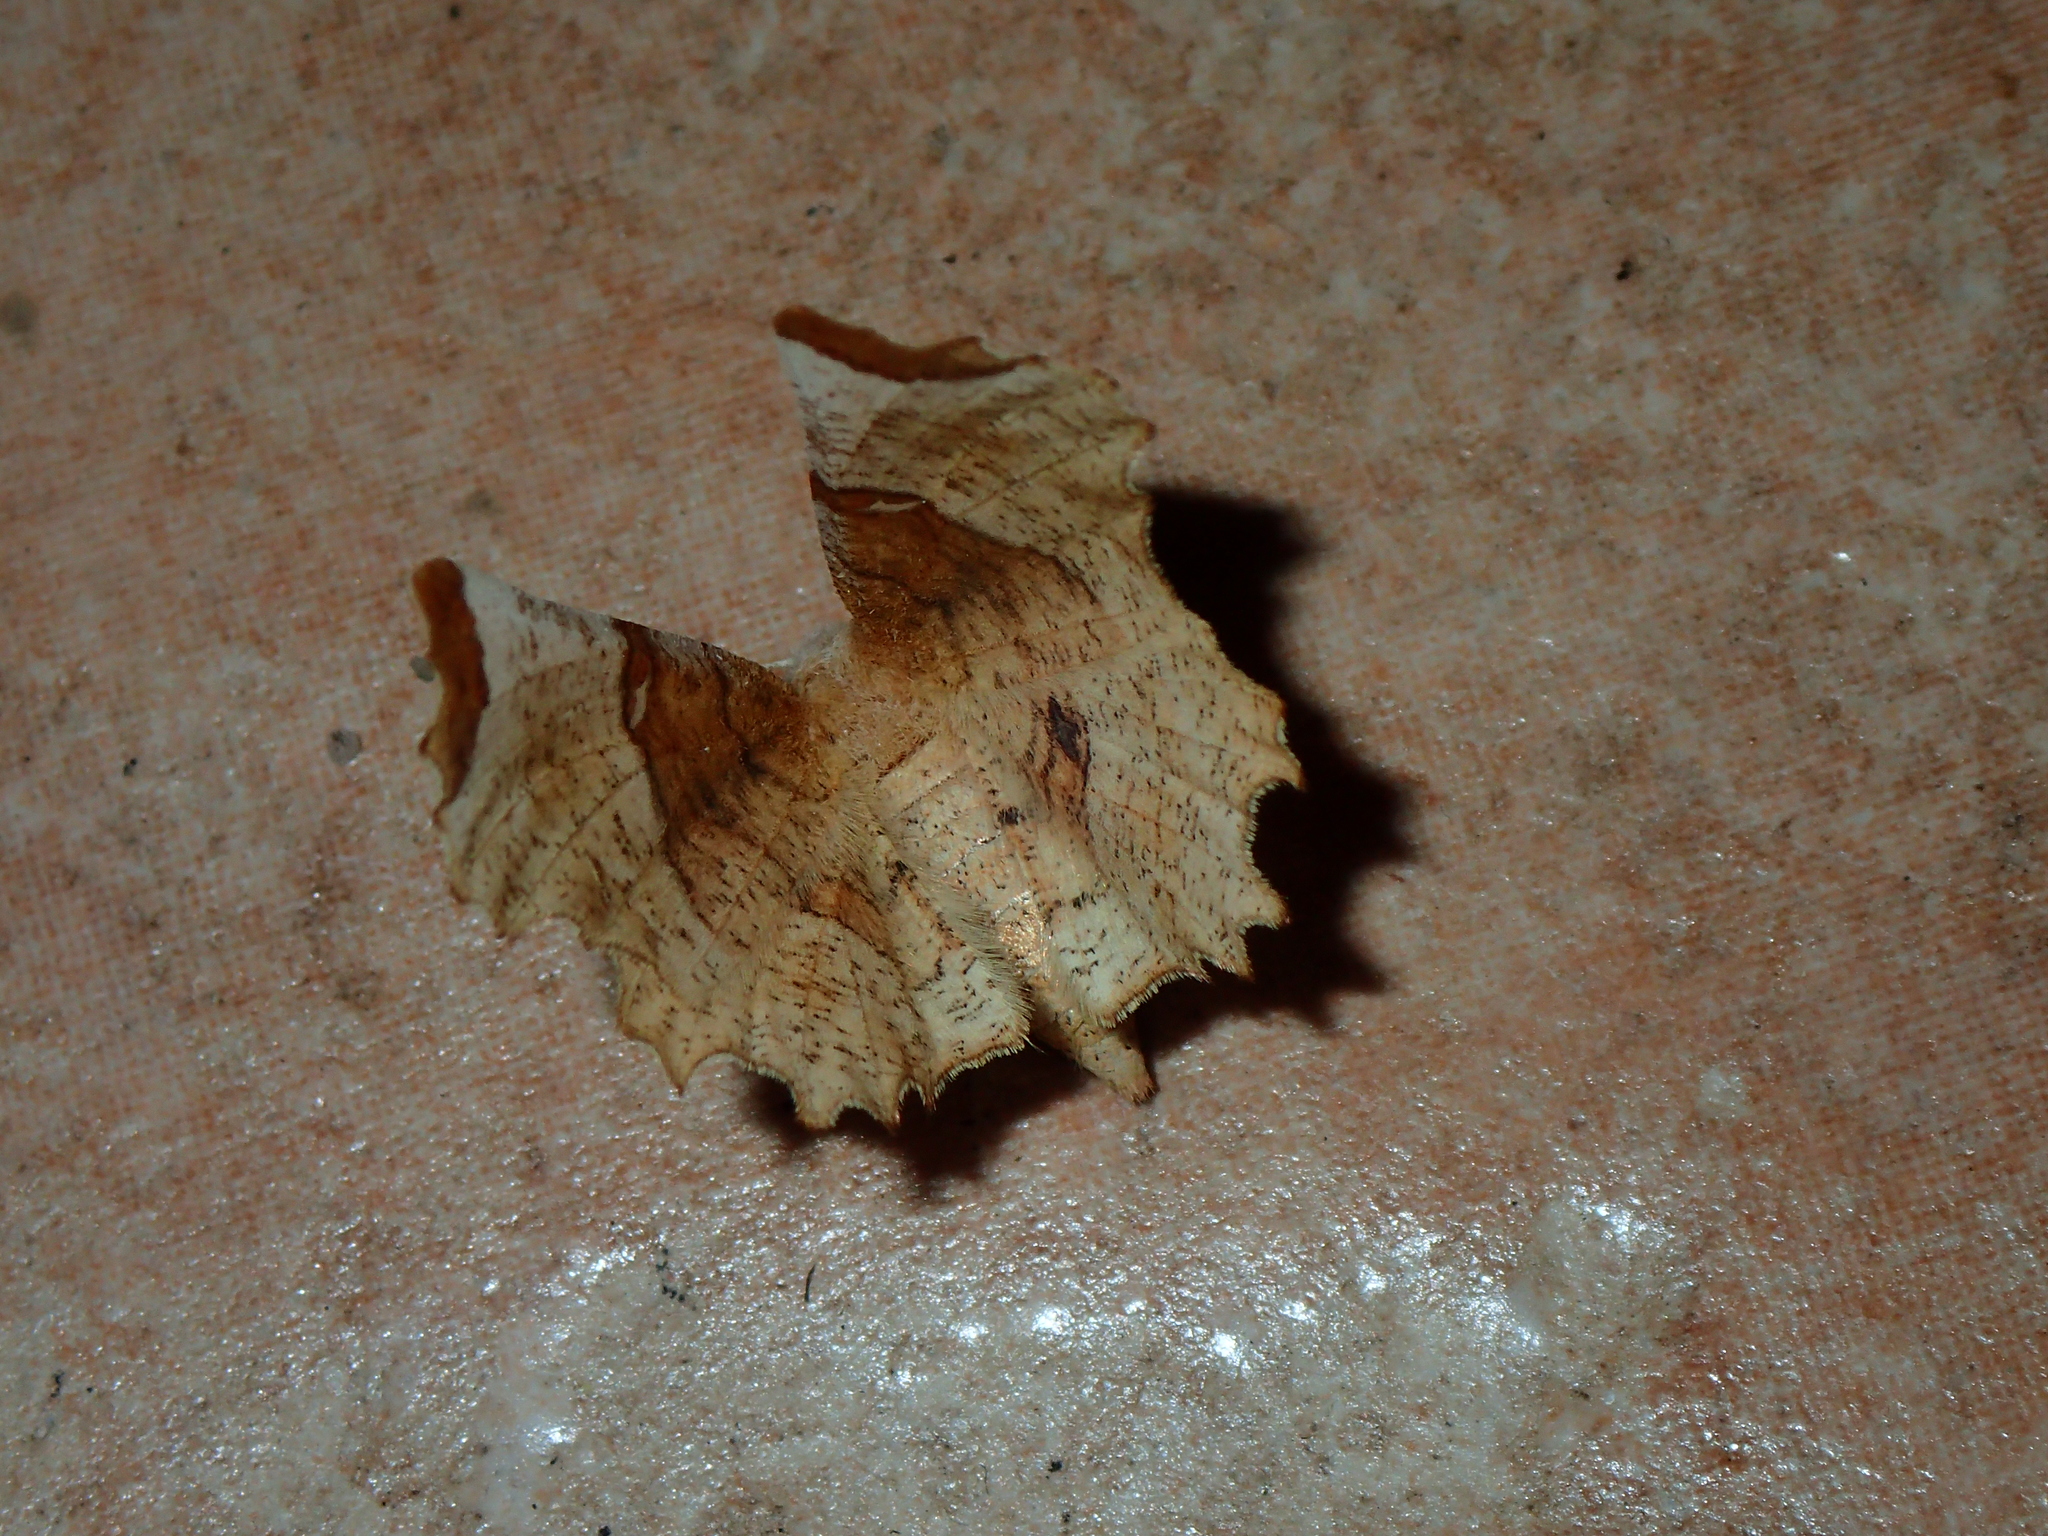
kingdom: Animalia
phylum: Arthropoda
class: Insecta
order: Lepidoptera
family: Geometridae
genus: Selenia
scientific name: Selenia lunularia
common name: Lunar thorn
